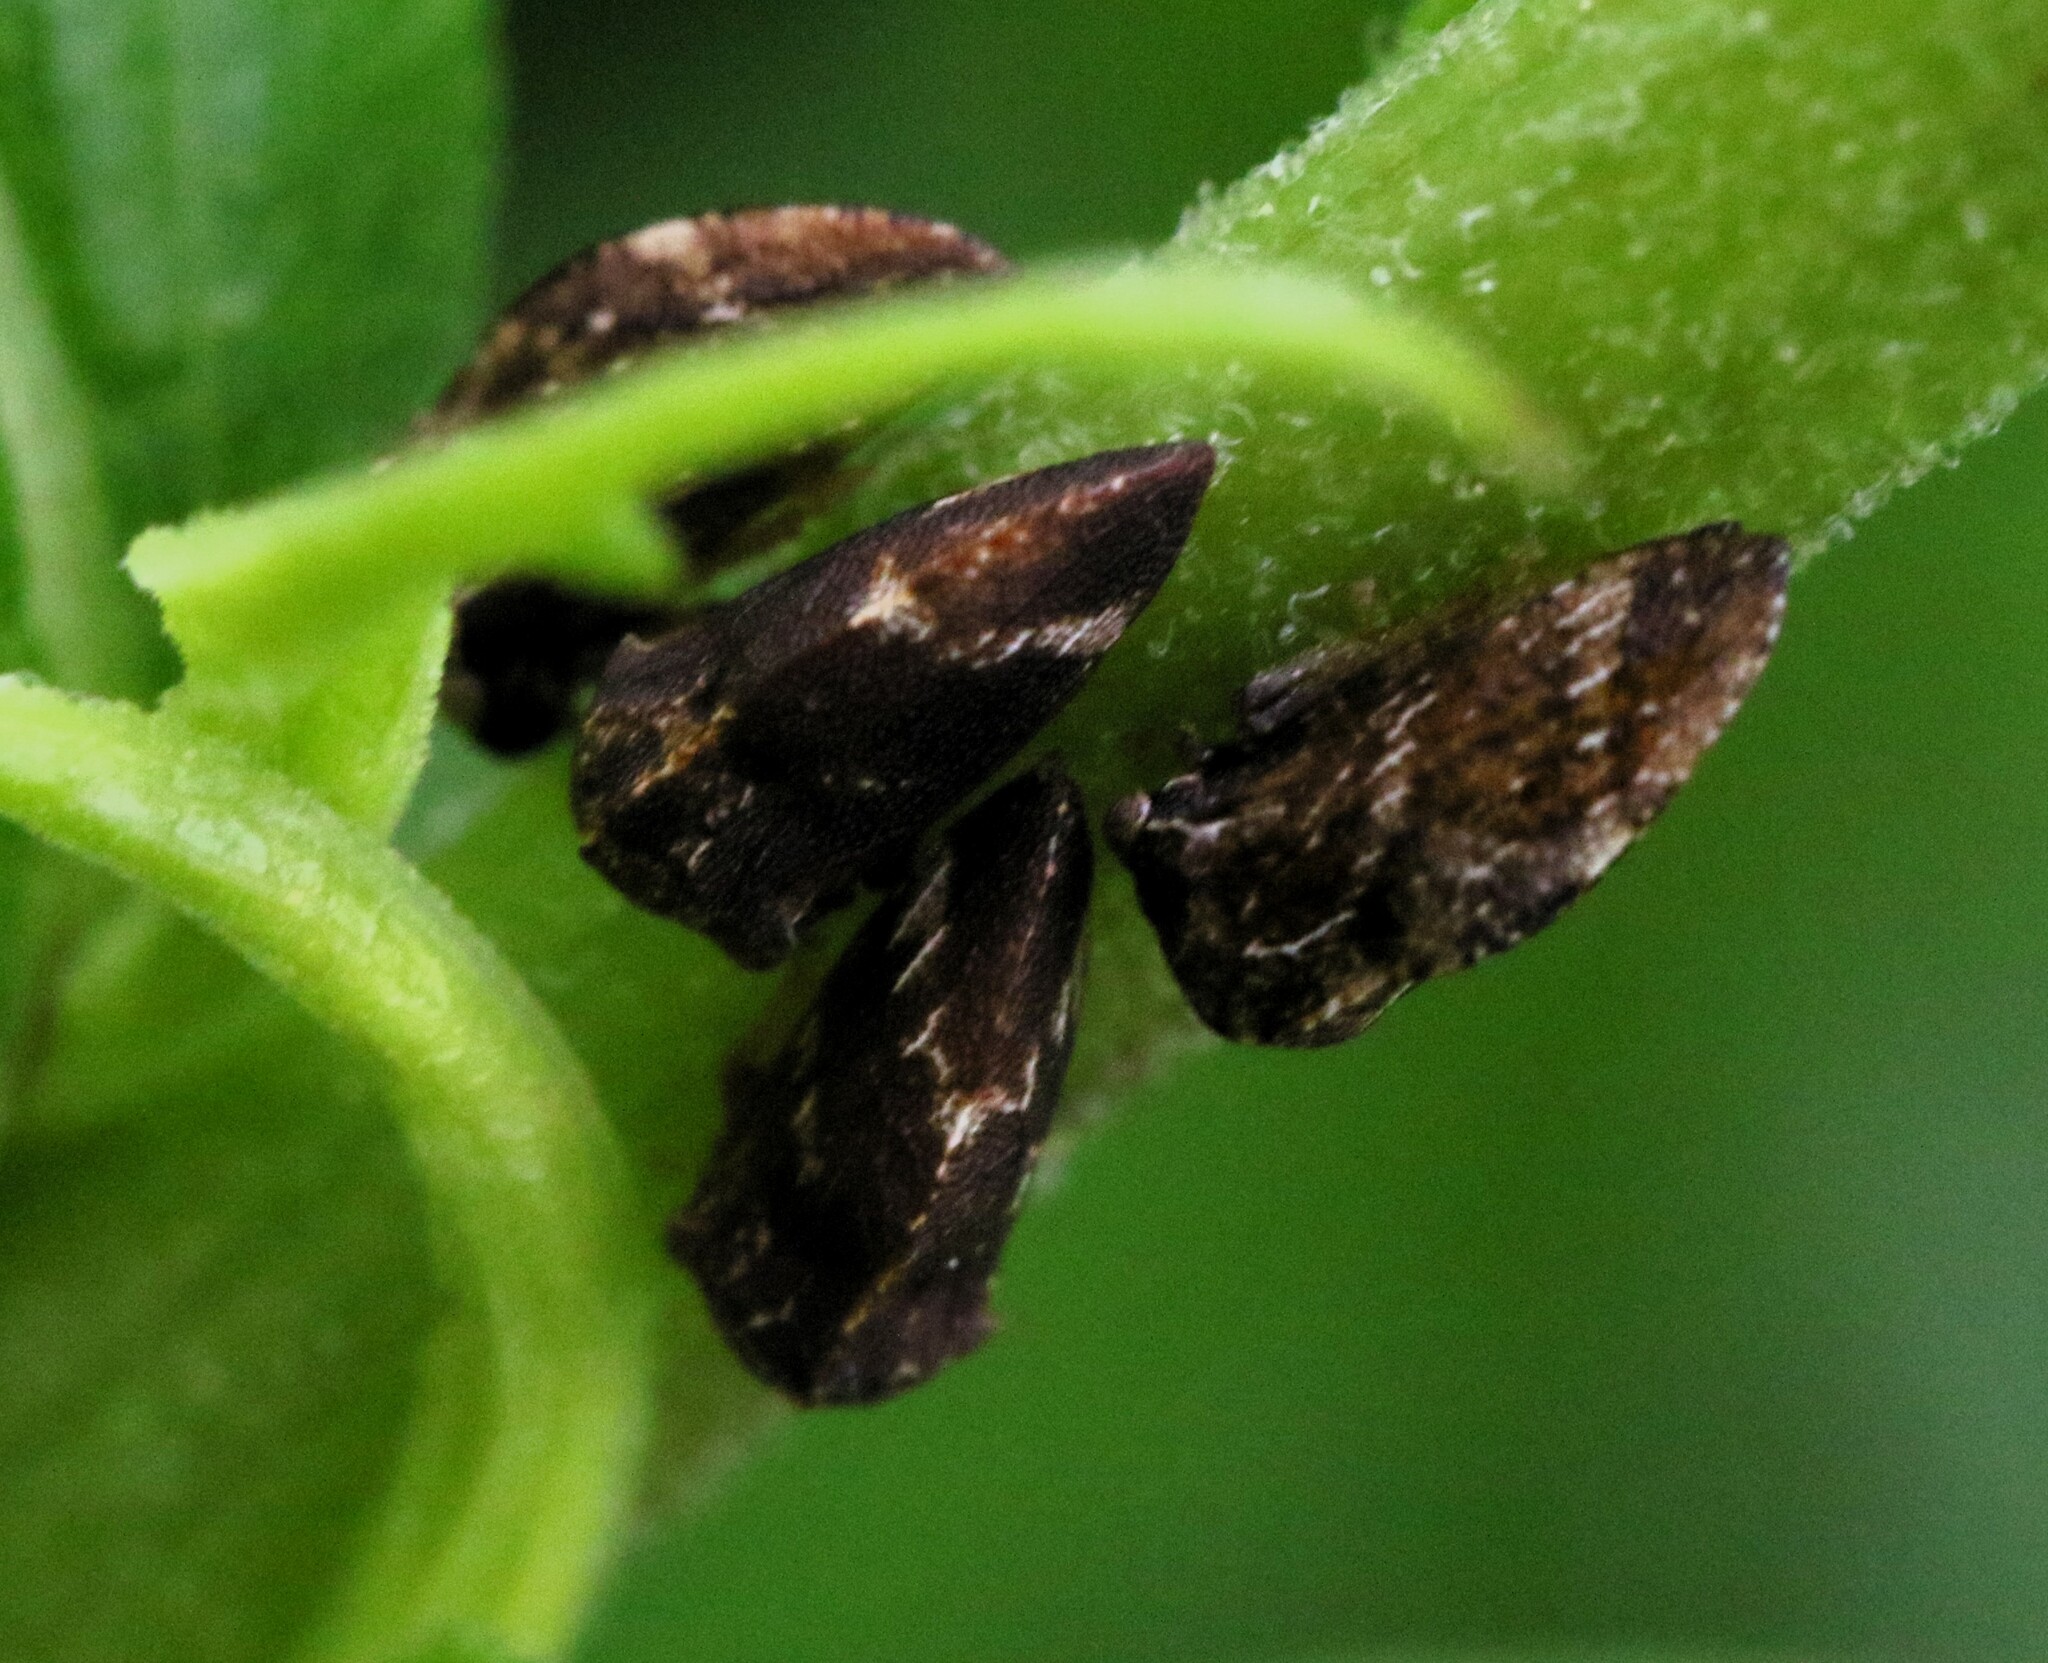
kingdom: Animalia
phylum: Arthropoda
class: Insecta
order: Hemiptera
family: Membracidae
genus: Publilia
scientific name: Publilia concava
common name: Aster treehopper
